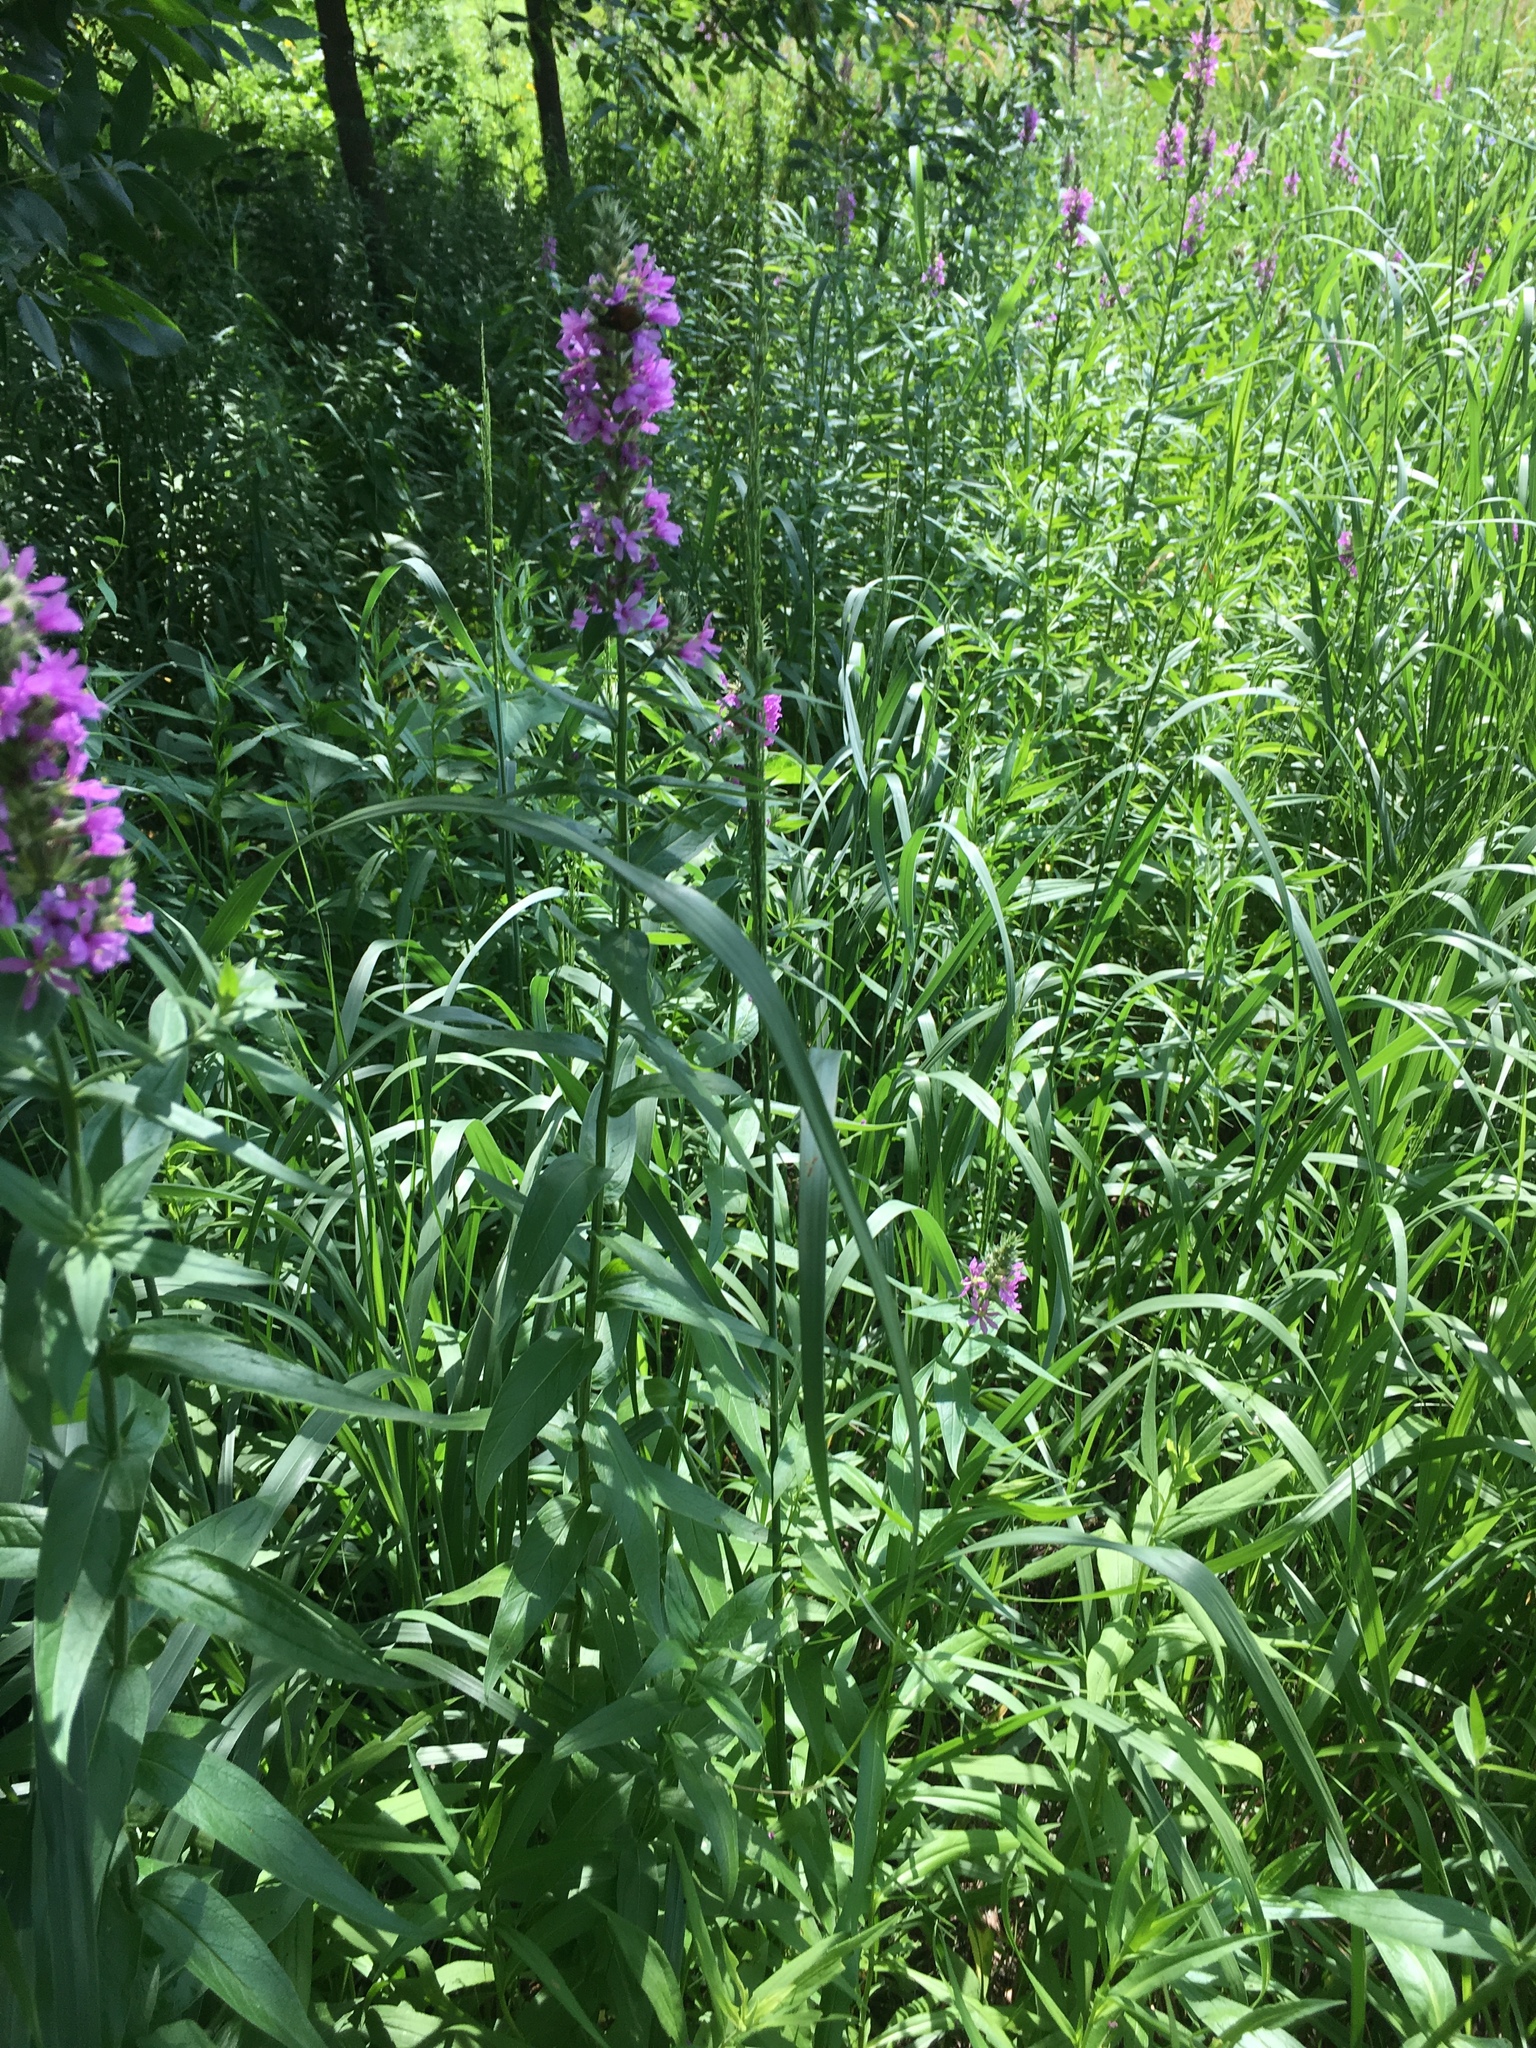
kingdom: Plantae
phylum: Tracheophyta
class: Magnoliopsida
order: Myrtales
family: Lythraceae
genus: Lythrum
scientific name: Lythrum salicaria
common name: Purple loosestrife
